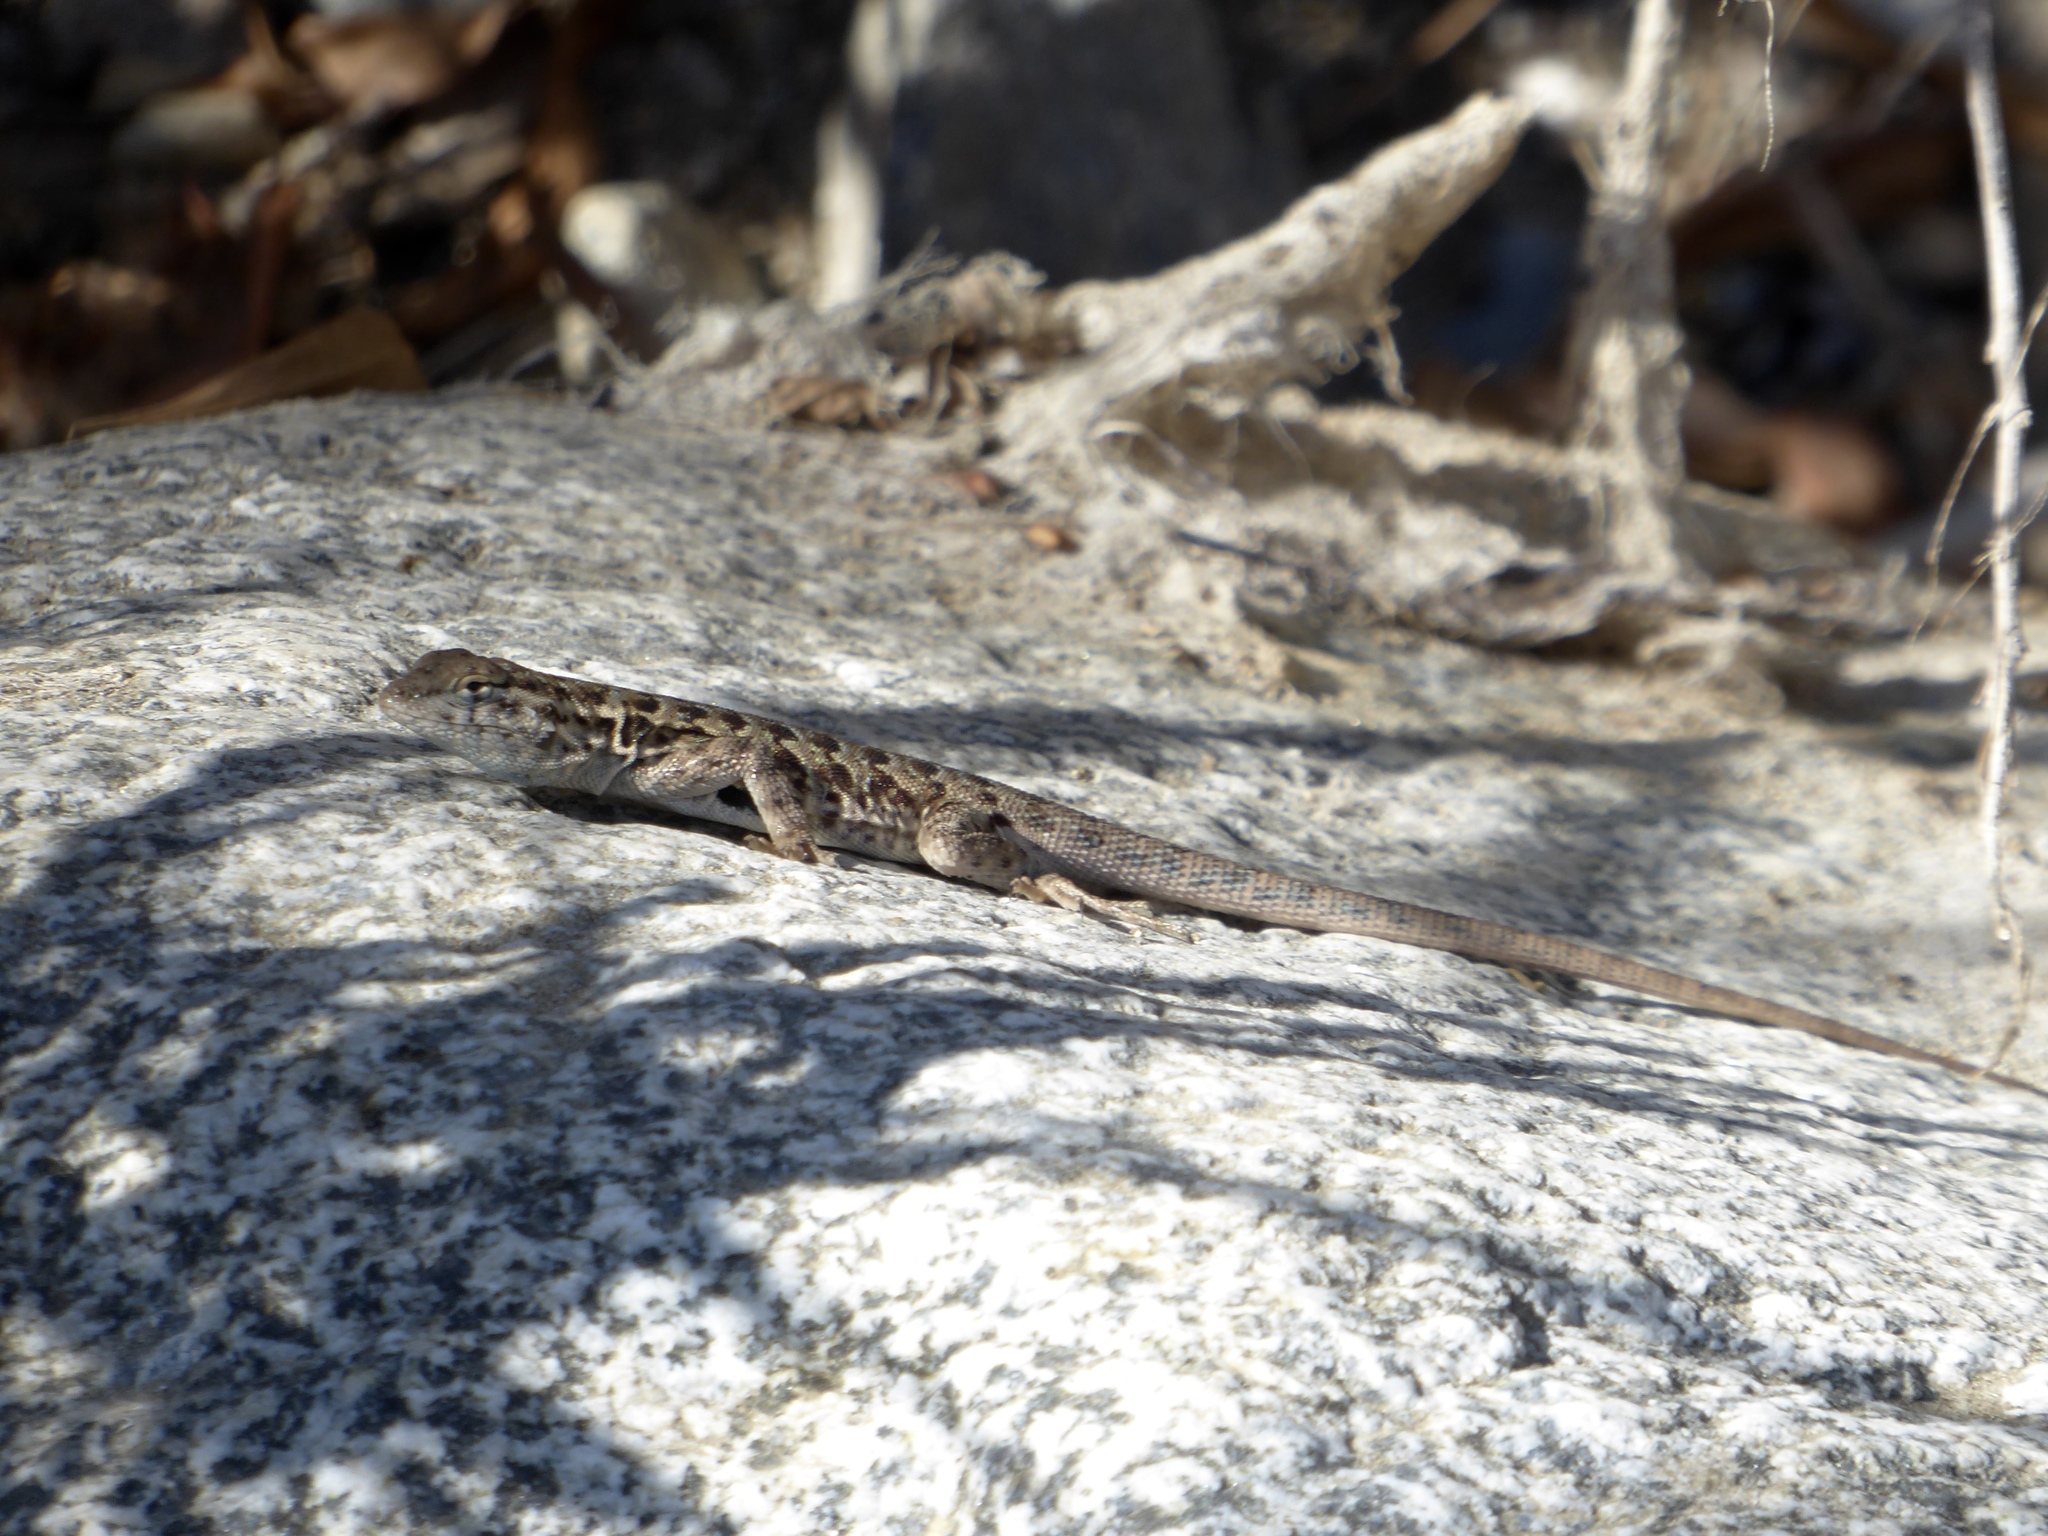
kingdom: Animalia
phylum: Chordata
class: Squamata
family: Phrynosomatidae
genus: Uta
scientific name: Uta stansburiana
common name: Side-blotched lizard
